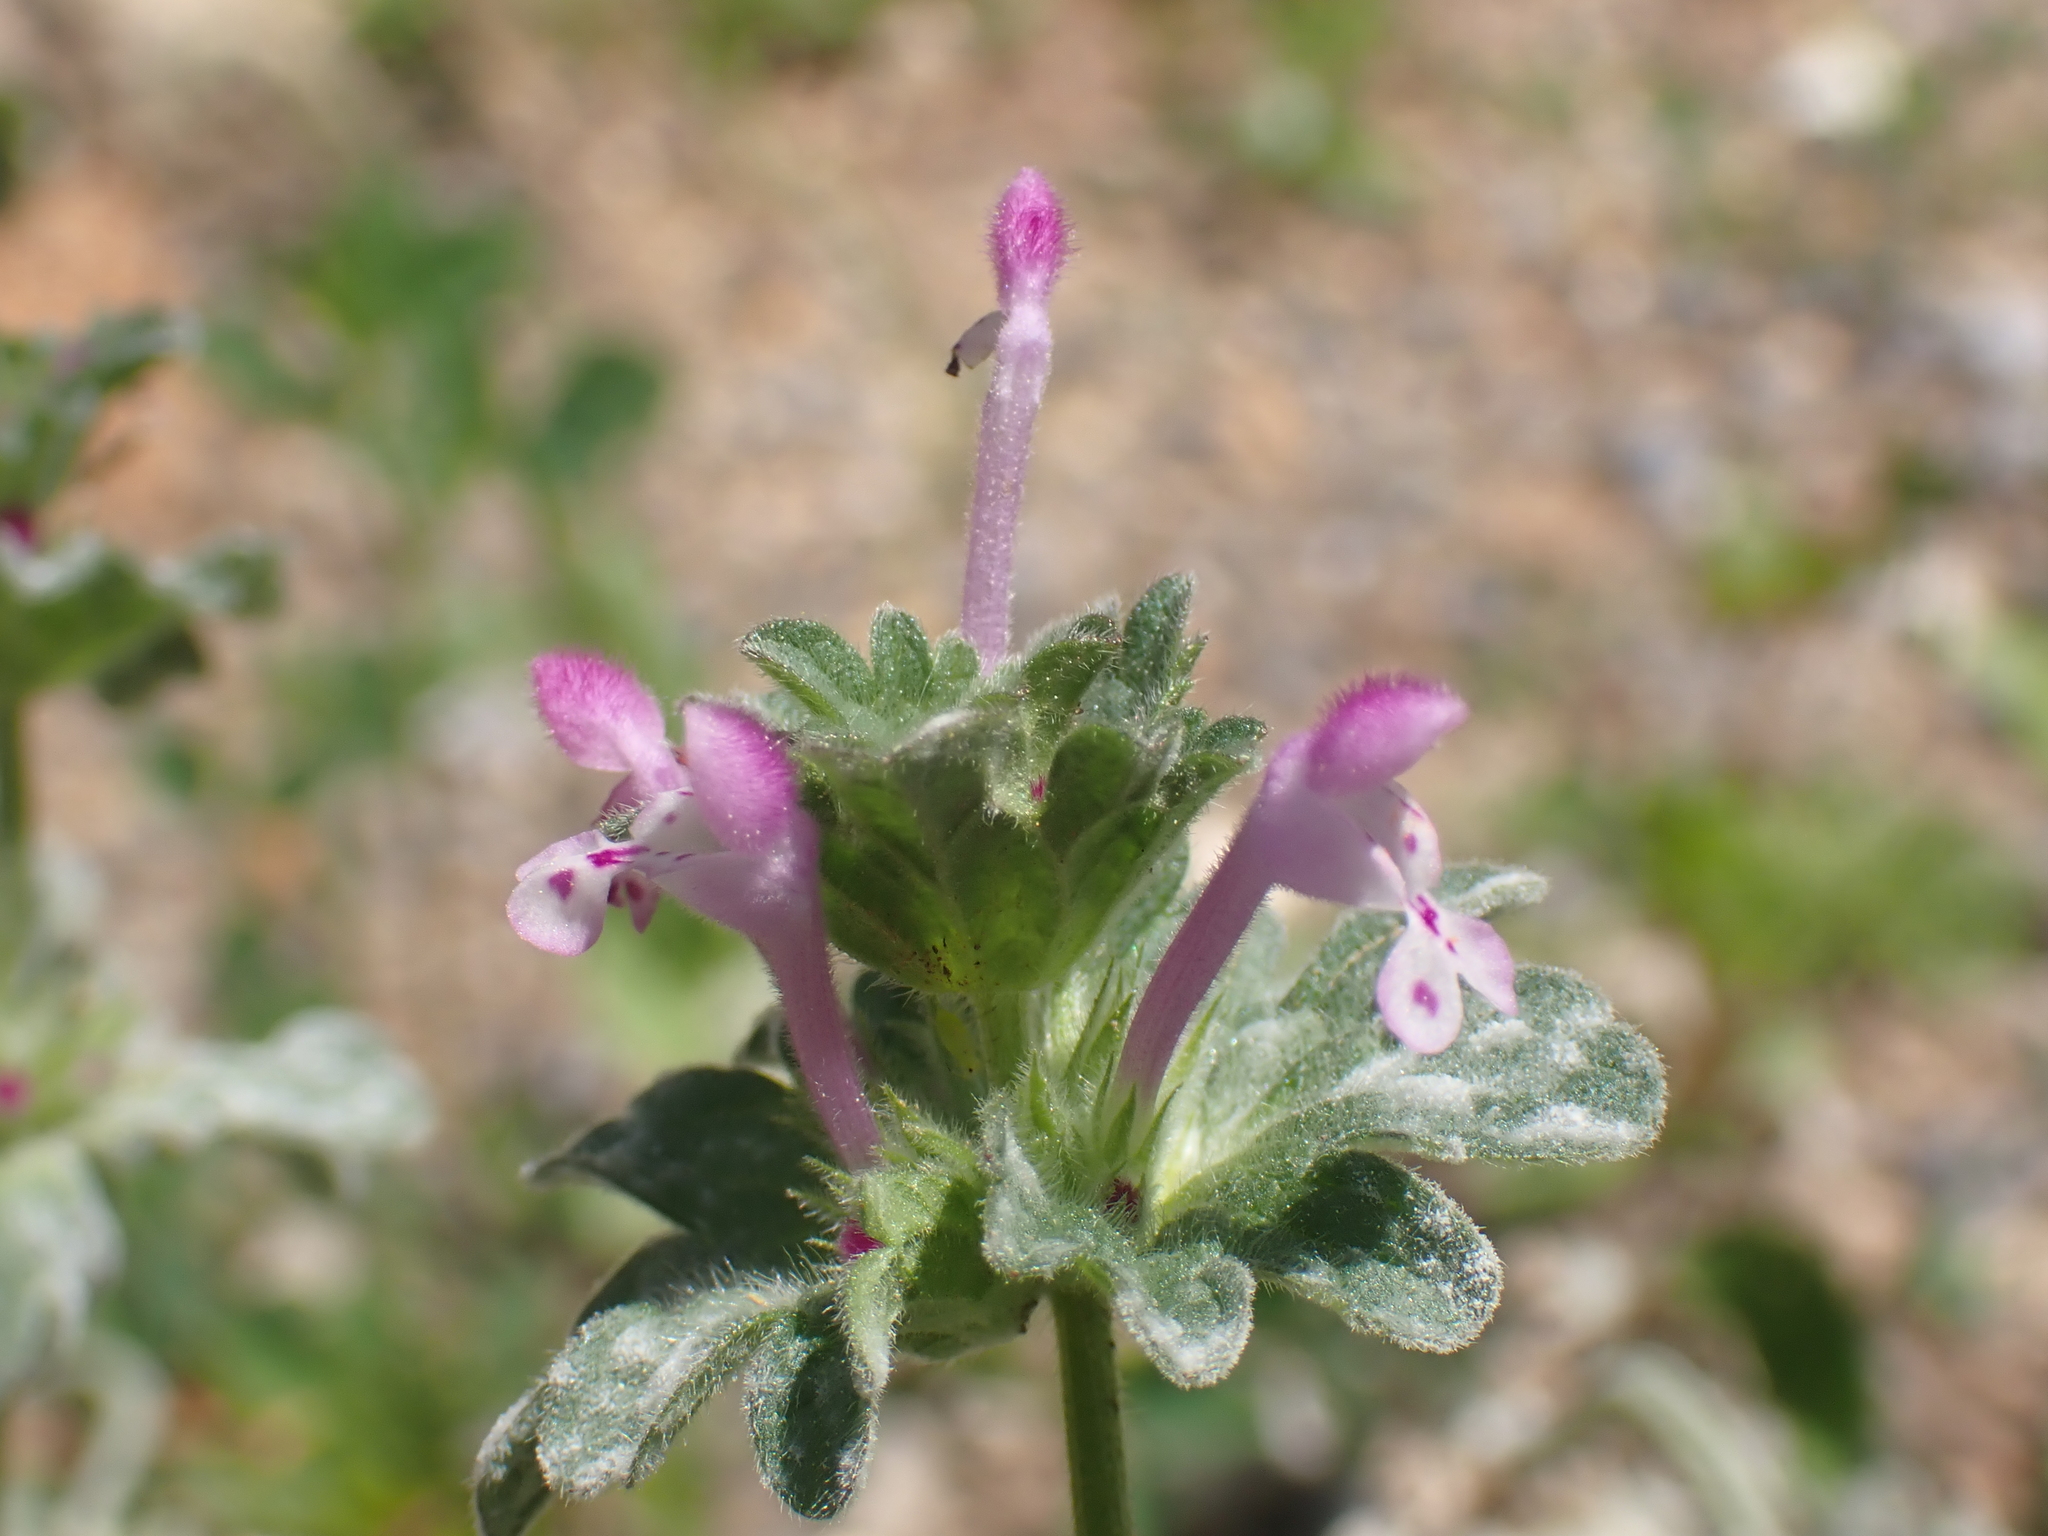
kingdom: Plantae
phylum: Tracheophyta
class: Magnoliopsida
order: Lamiales
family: Lamiaceae
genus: Lamium
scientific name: Lamium amplexicaule
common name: Henbit dead-nettle
